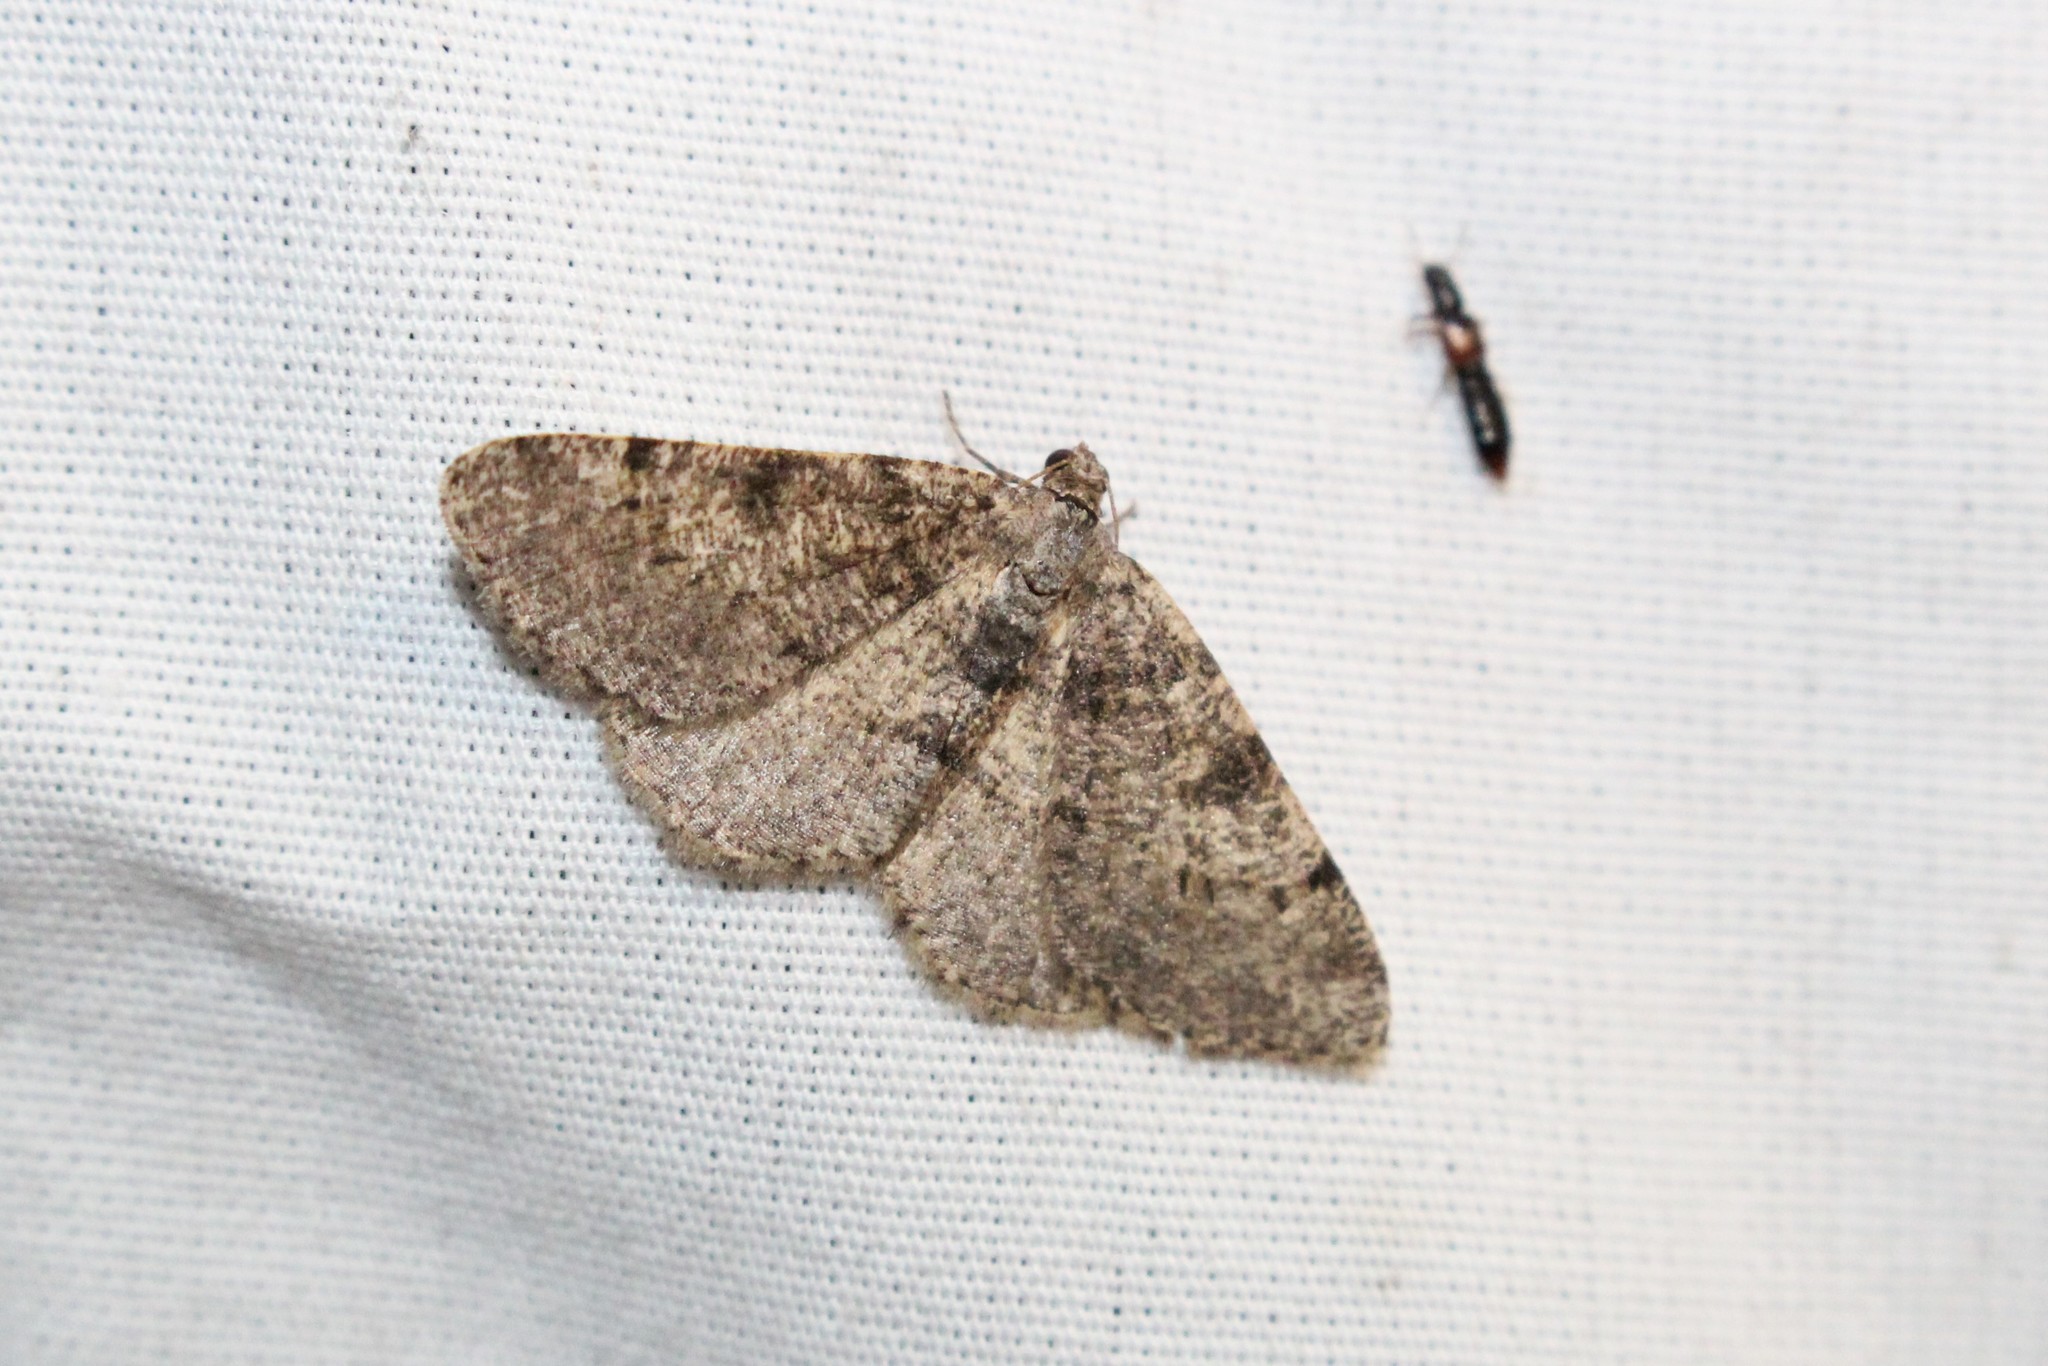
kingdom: Animalia
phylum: Arthropoda
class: Insecta
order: Lepidoptera
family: Geometridae
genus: Digrammia
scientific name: Digrammia gnophosaria
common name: Hollow-spotted angle
